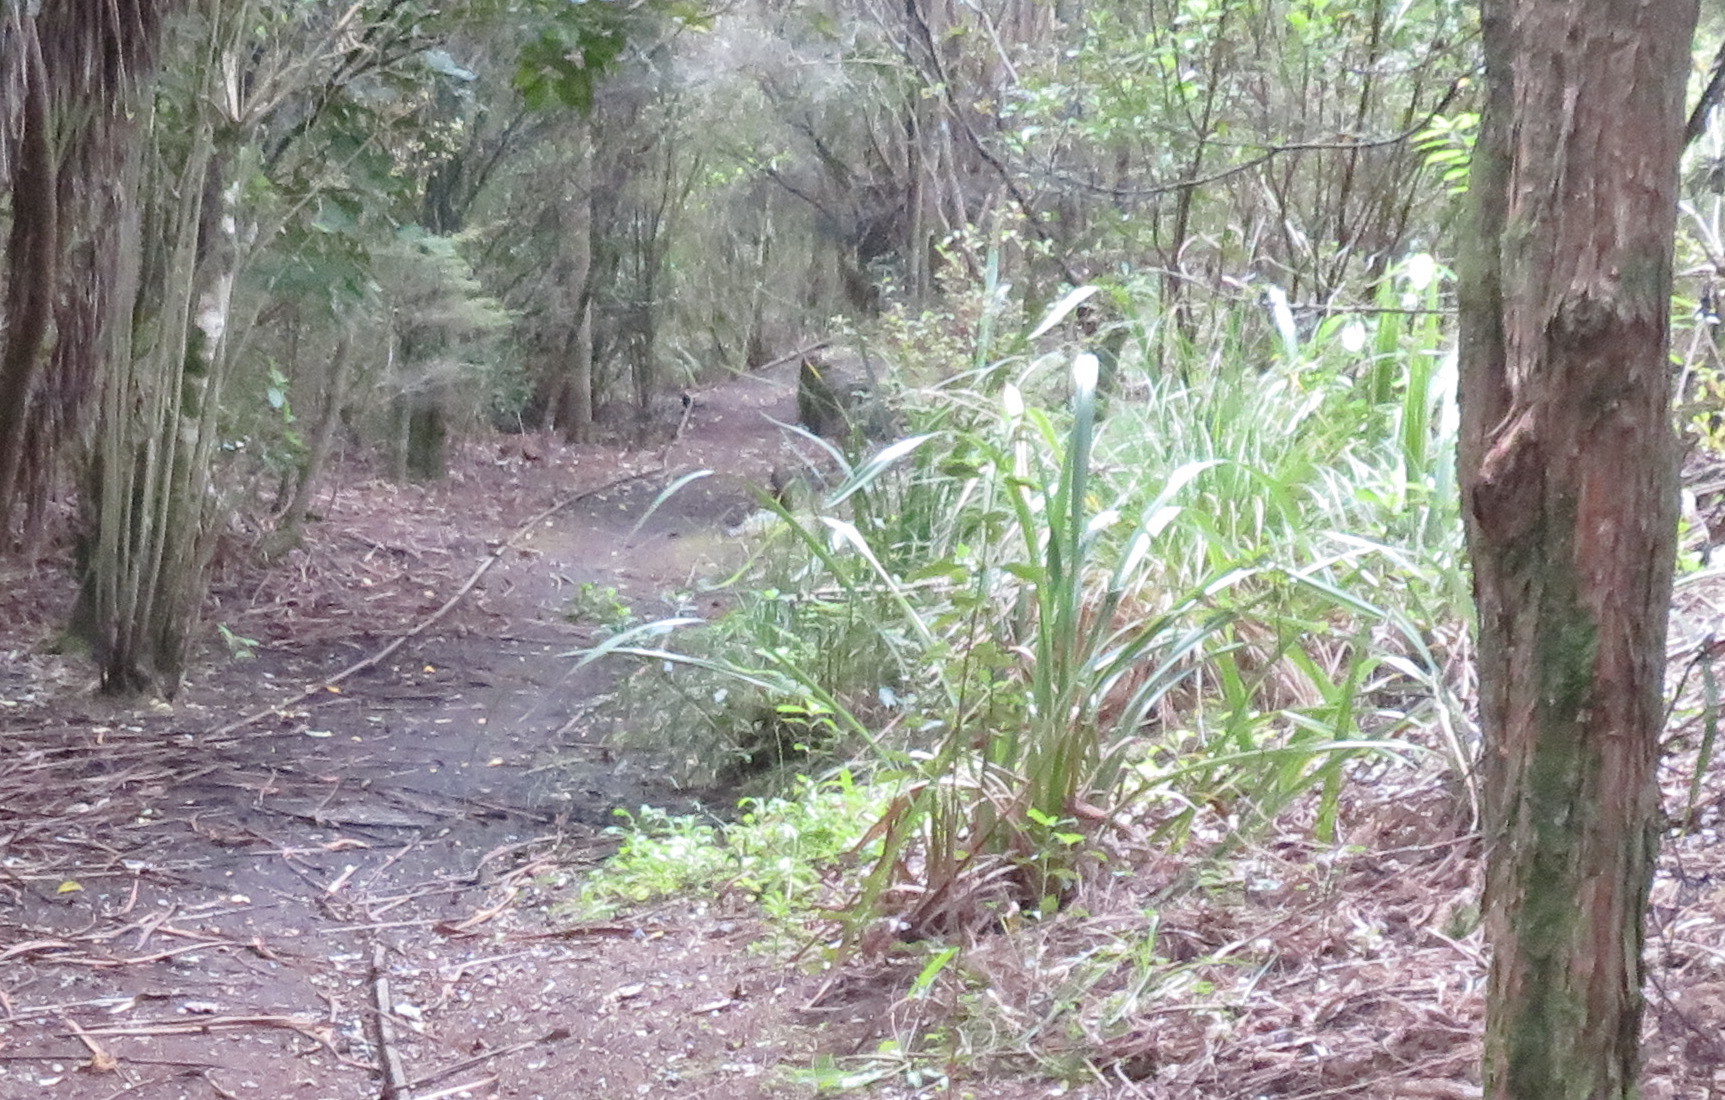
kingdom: Plantae
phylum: Tracheophyta
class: Liliopsida
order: Asparagales
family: Asphodelaceae
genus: Phormium
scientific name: Phormium tenax
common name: New zealand flax
